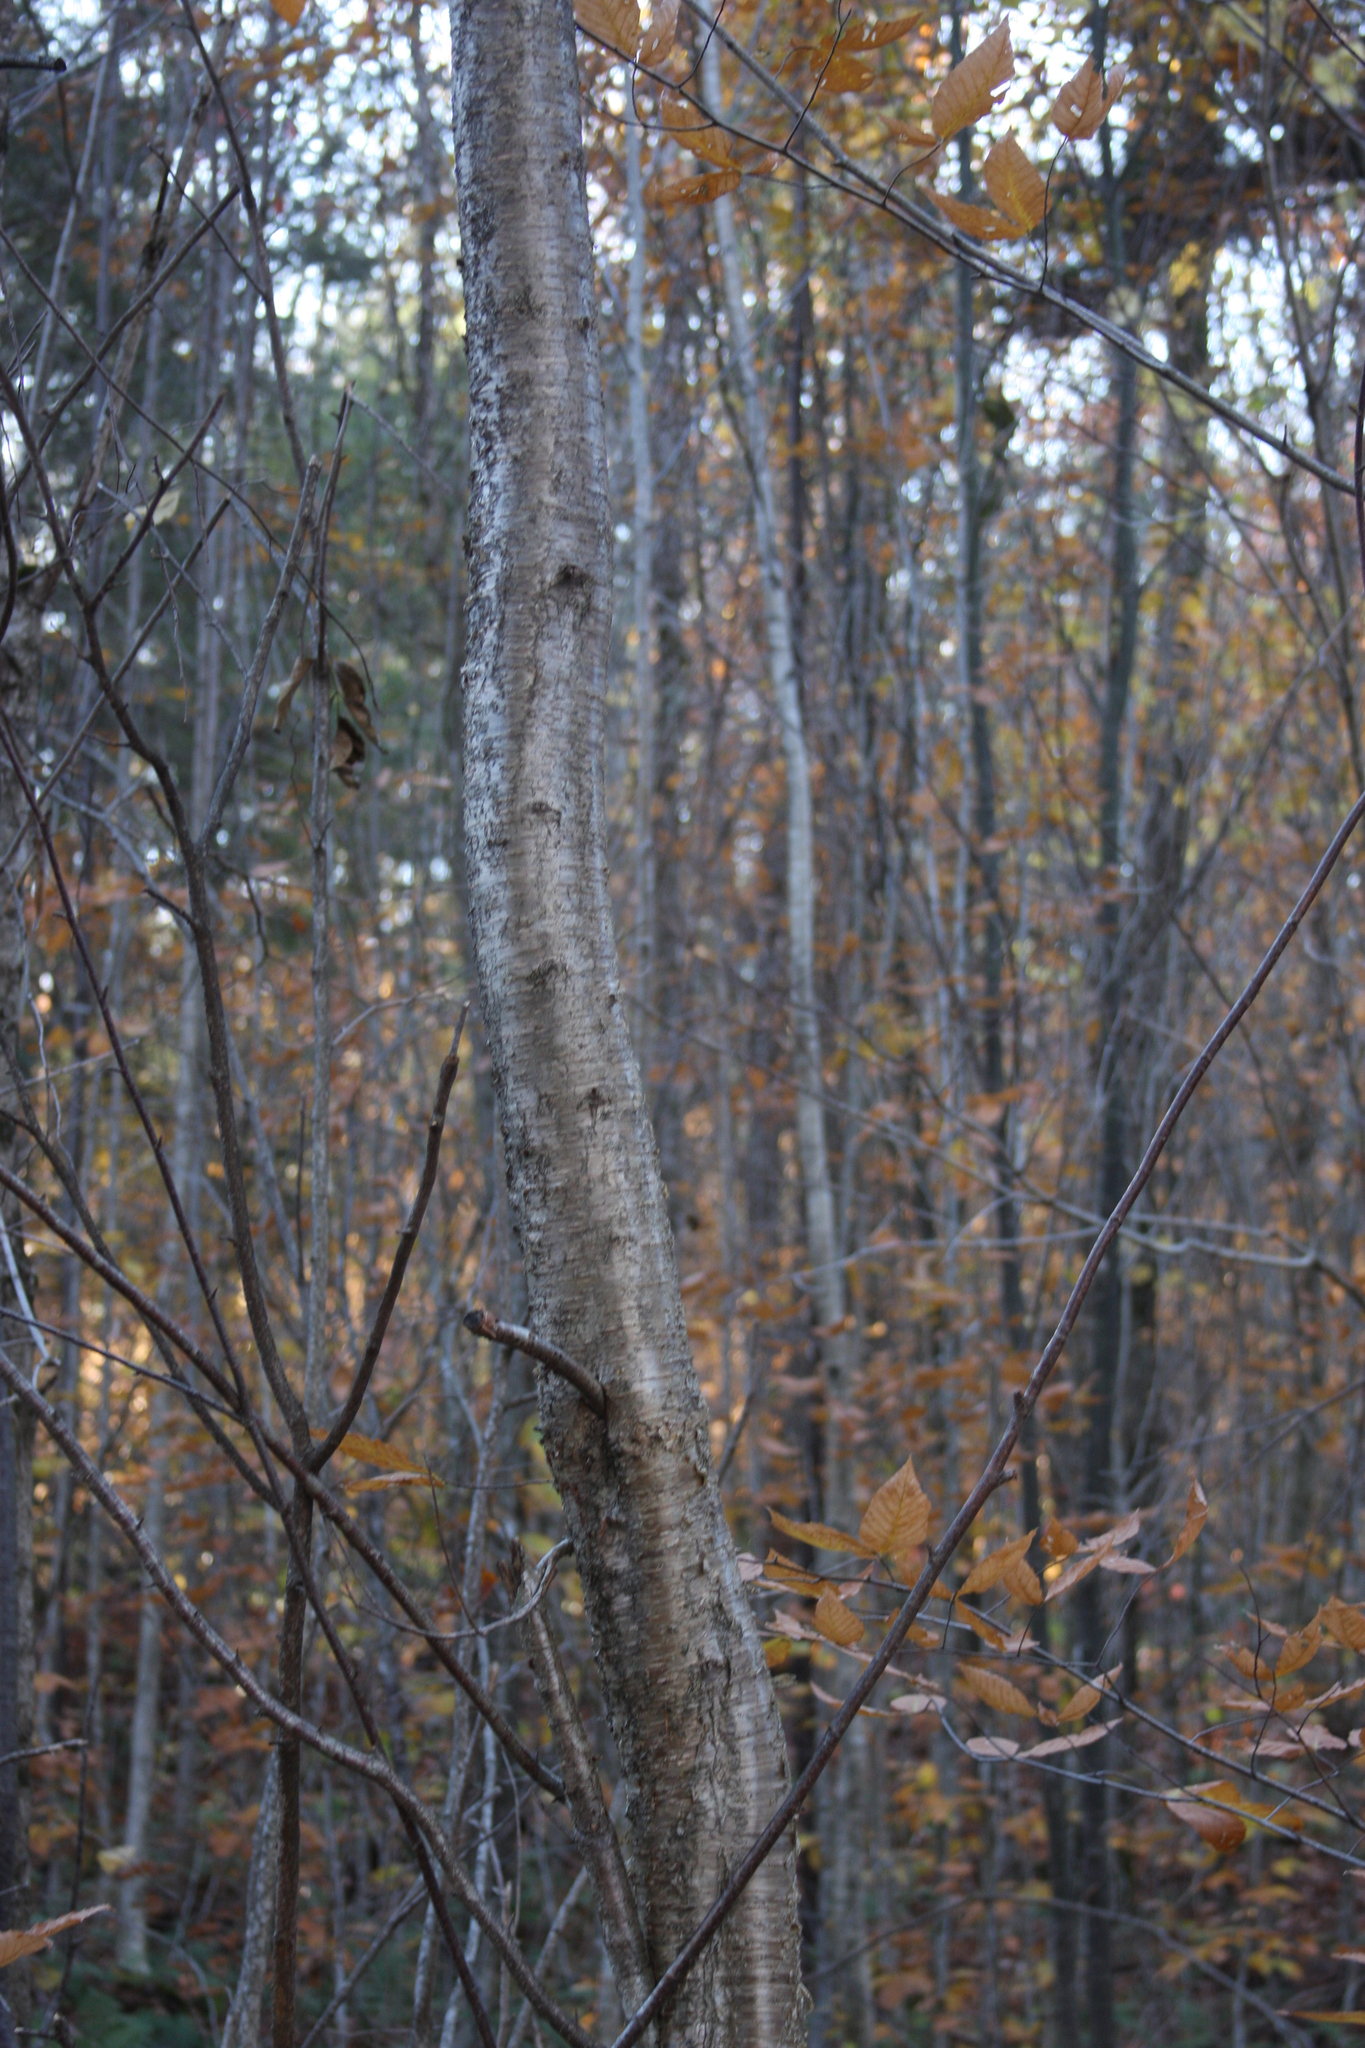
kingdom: Plantae
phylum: Tracheophyta
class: Magnoliopsida
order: Fagales
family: Betulaceae
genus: Betula
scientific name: Betula alleghaniensis
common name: Yellow birch
